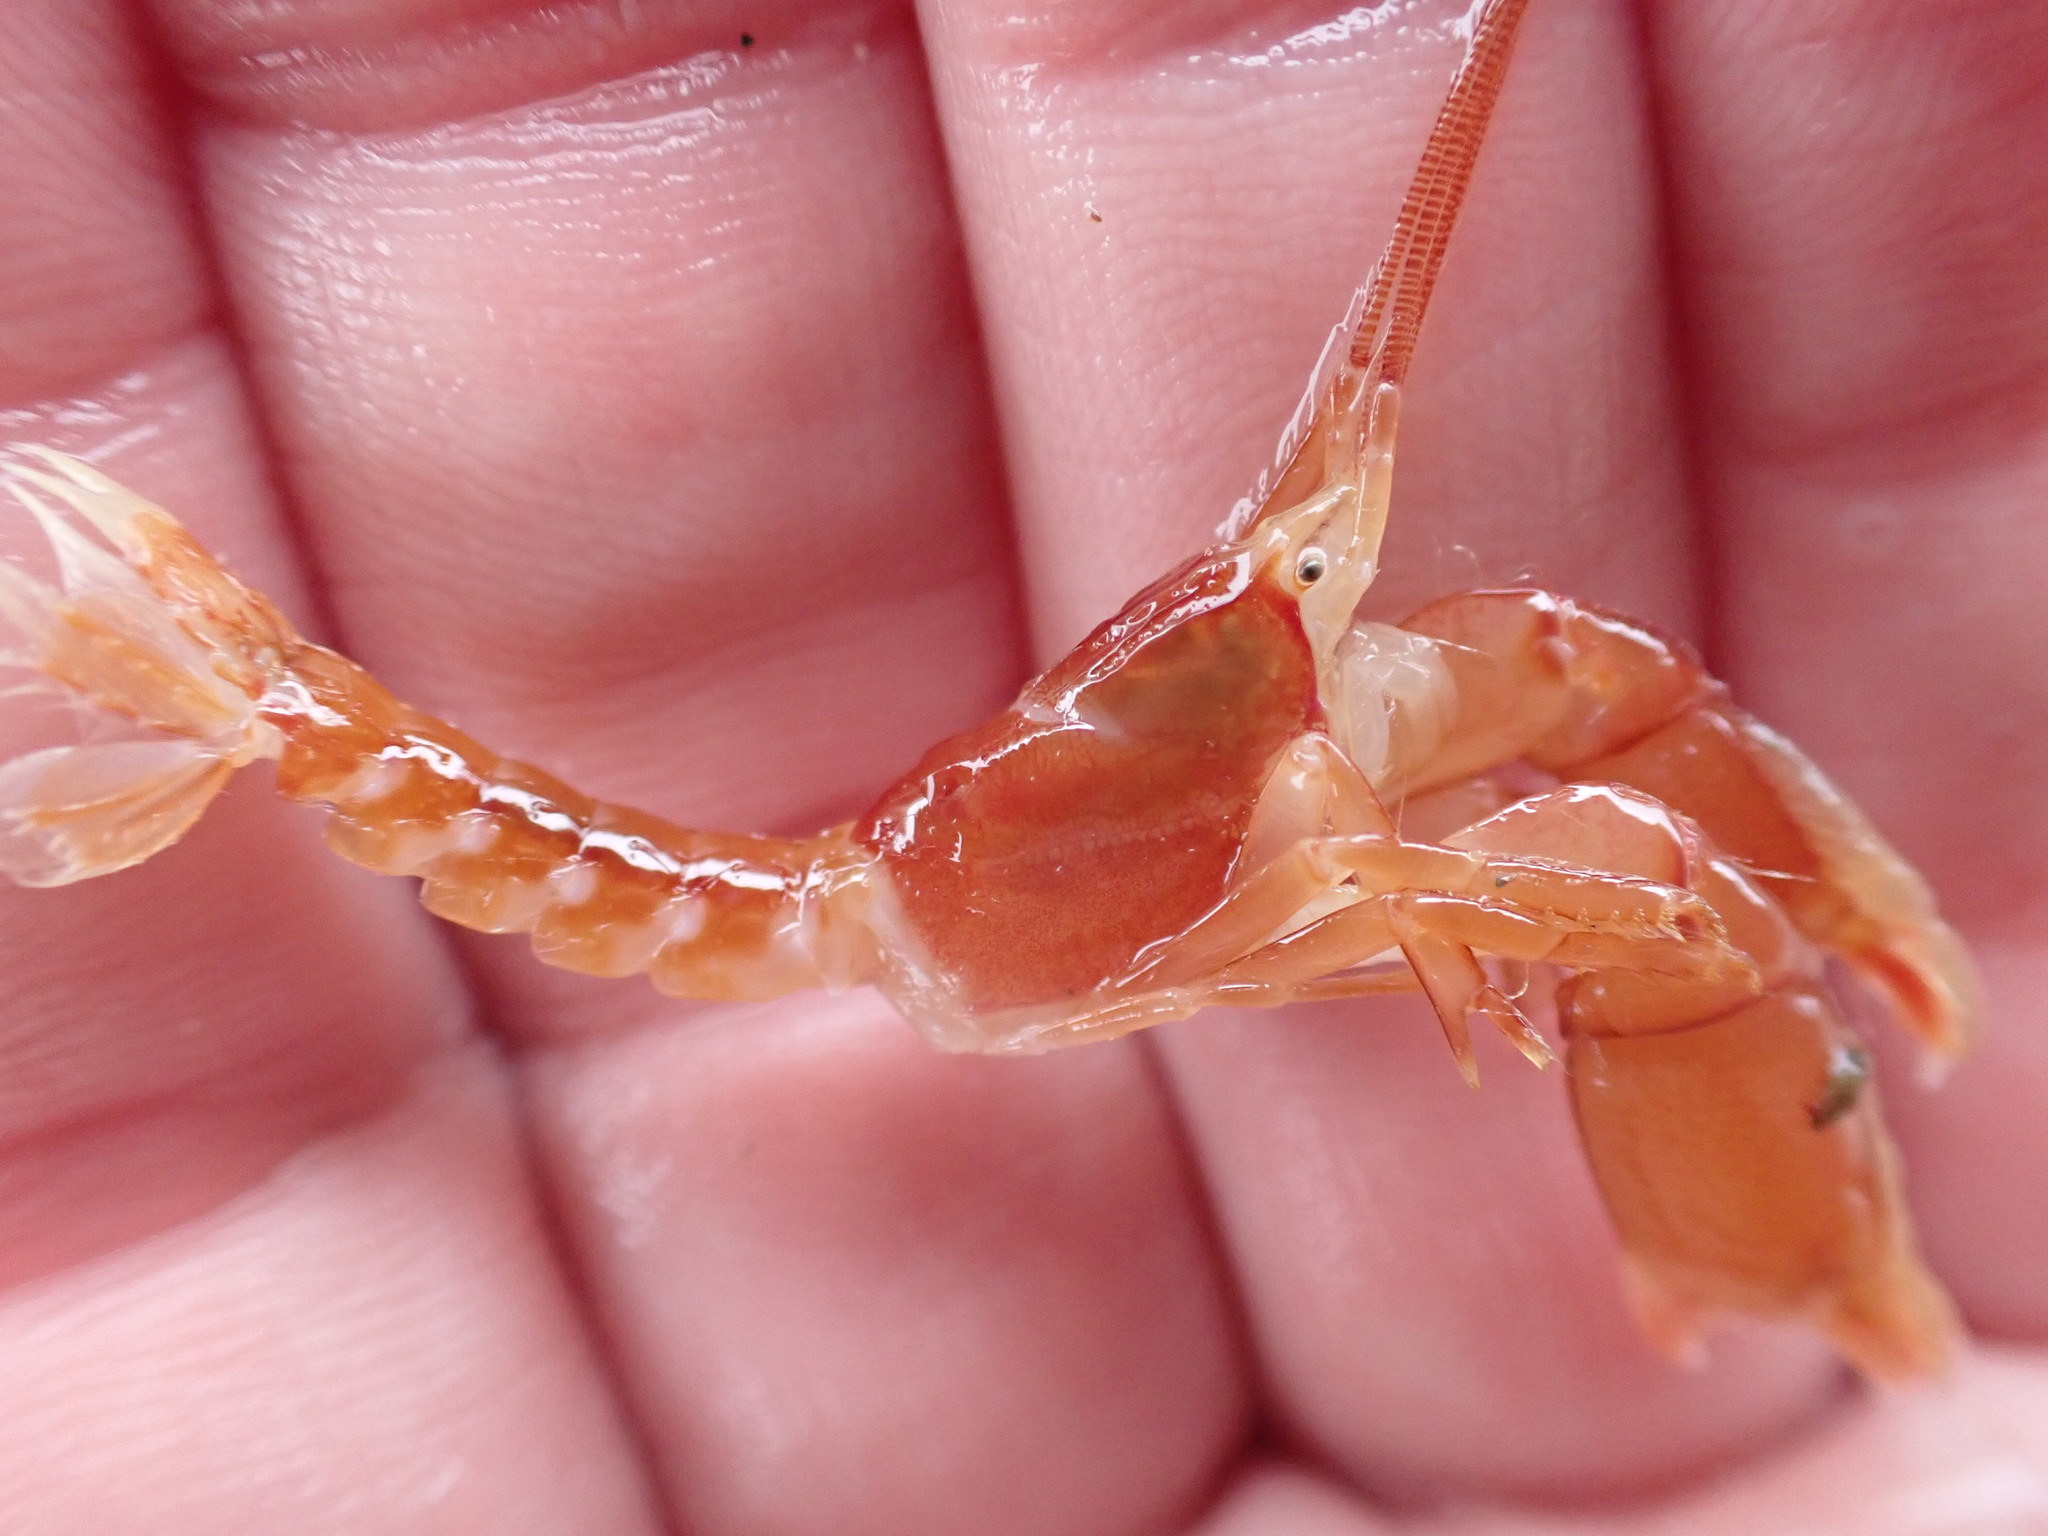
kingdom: Animalia
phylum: Arthropoda
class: Malacostraca
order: Decapoda
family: Axiidae
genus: Dorphinaxius
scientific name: Dorphinaxius kermadecensis
